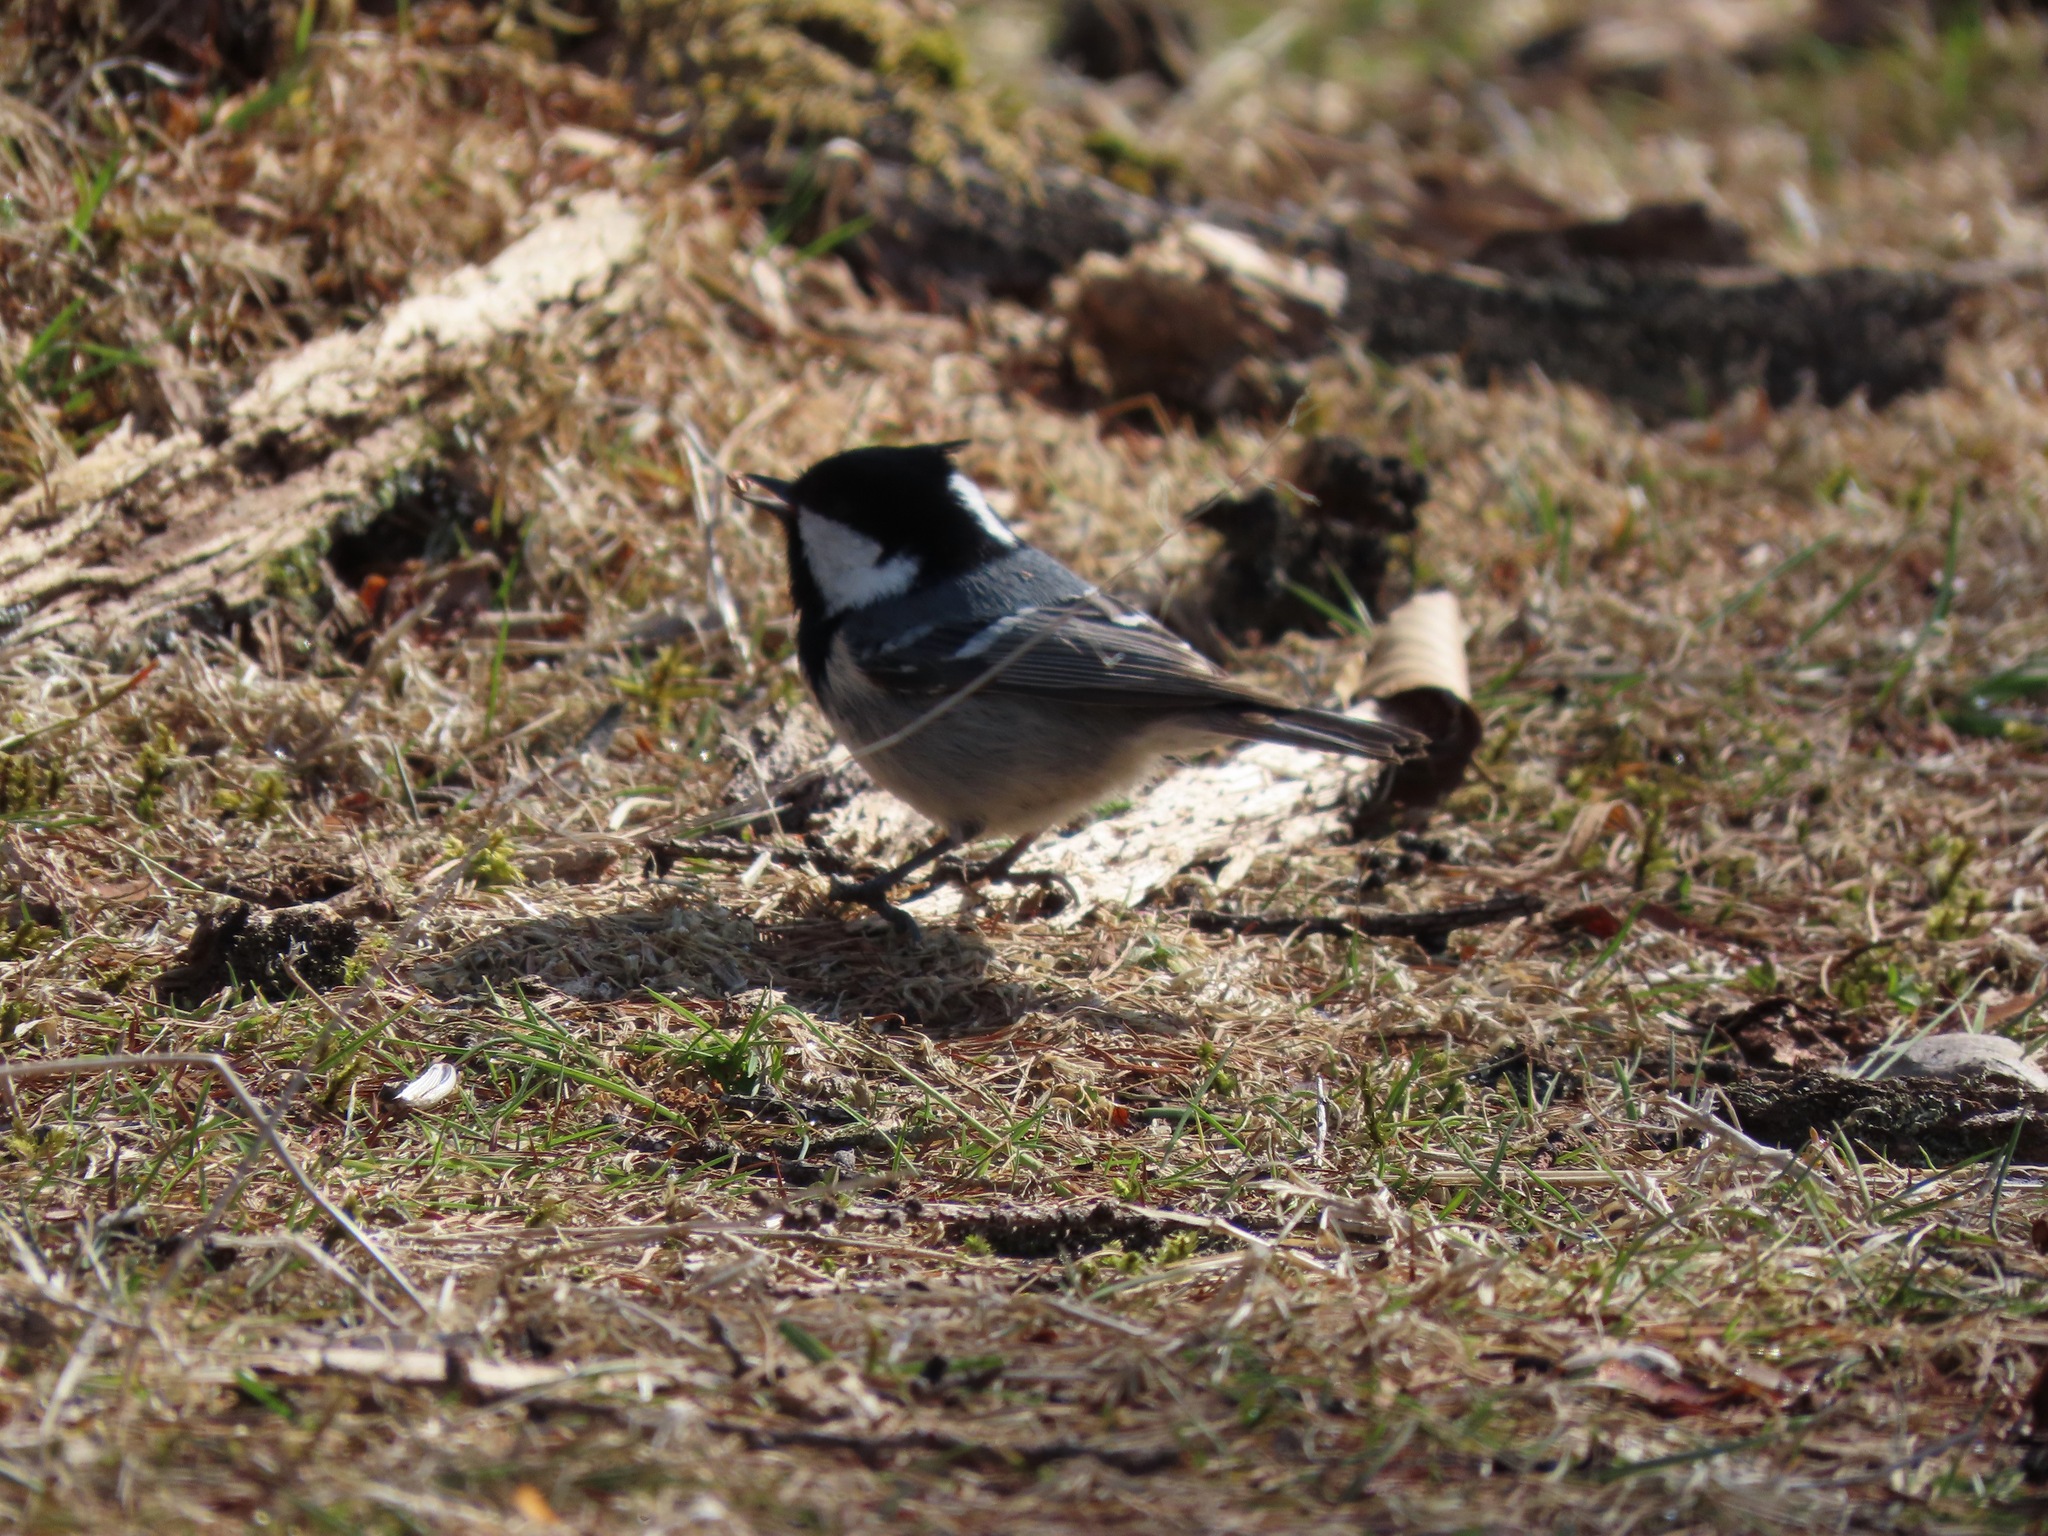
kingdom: Animalia
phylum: Chordata
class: Aves
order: Passeriformes
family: Paridae
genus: Periparus
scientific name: Periparus ater
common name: Coal tit
